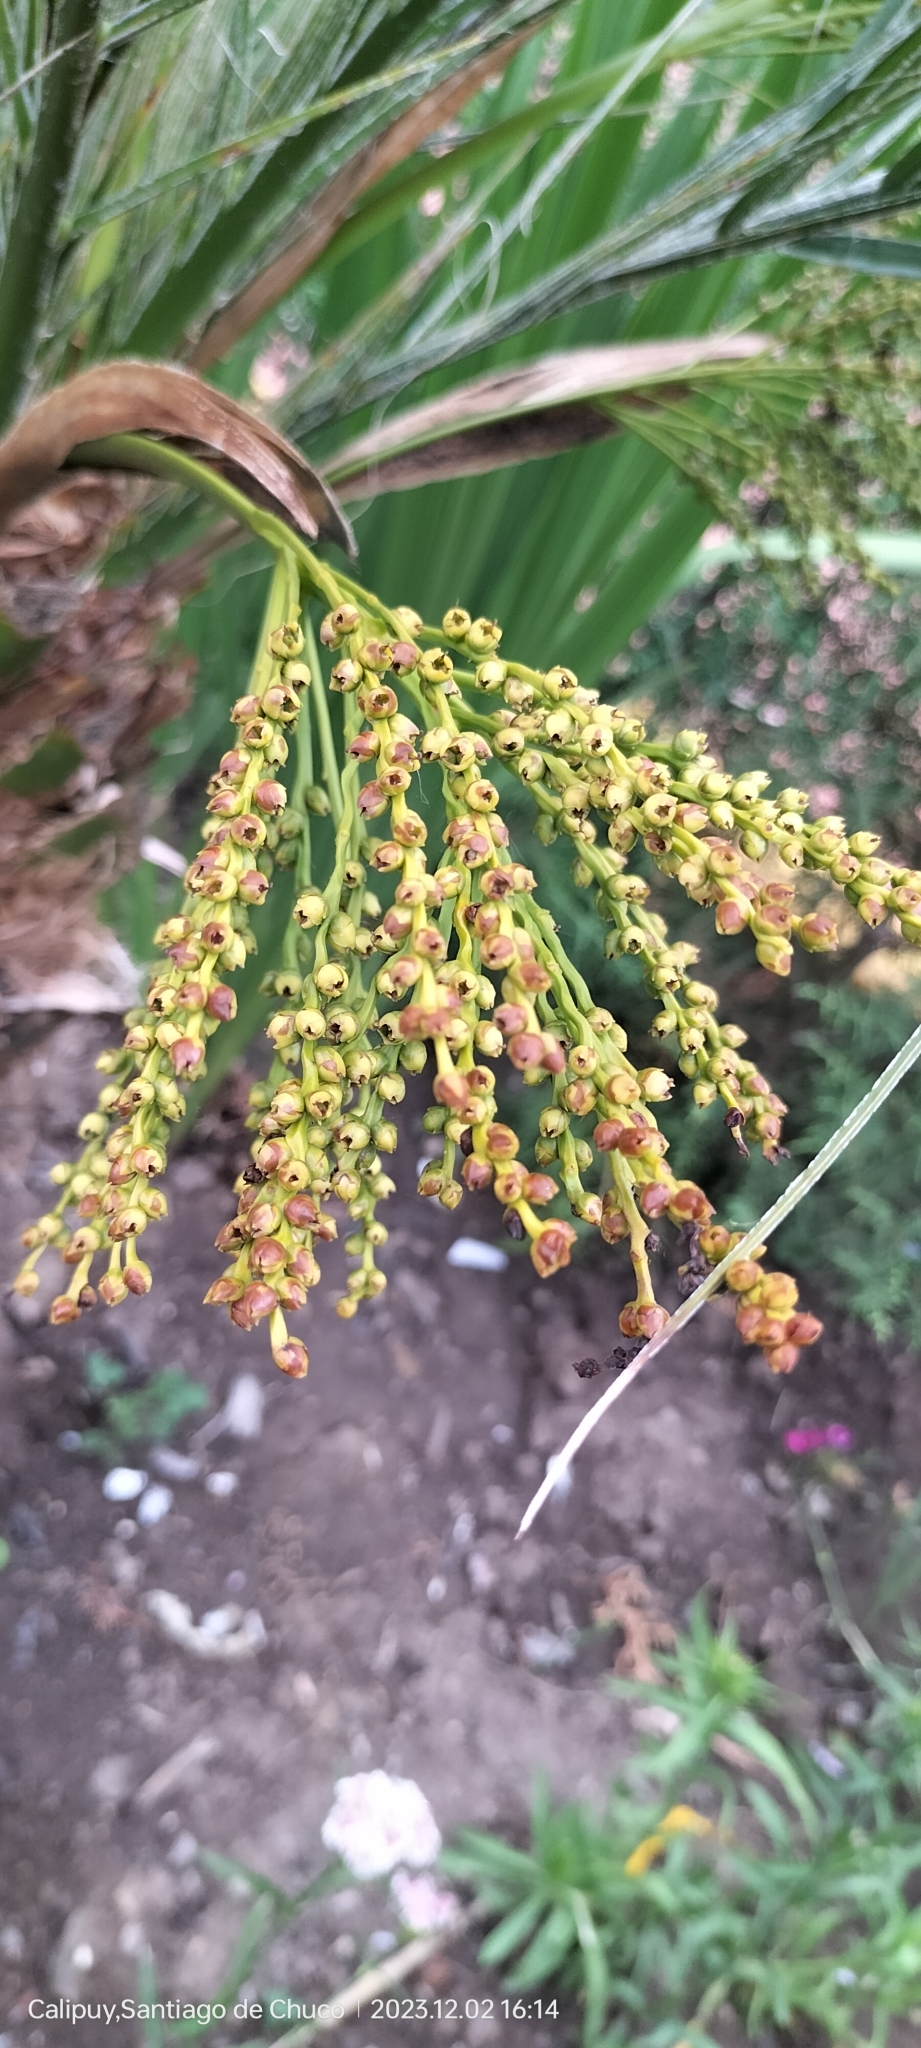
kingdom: Plantae
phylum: Tracheophyta
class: Liliopsida
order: Arecales
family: Arecaceae
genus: Phoenix
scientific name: Phoenix roebelenii
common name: Roebelin palm
